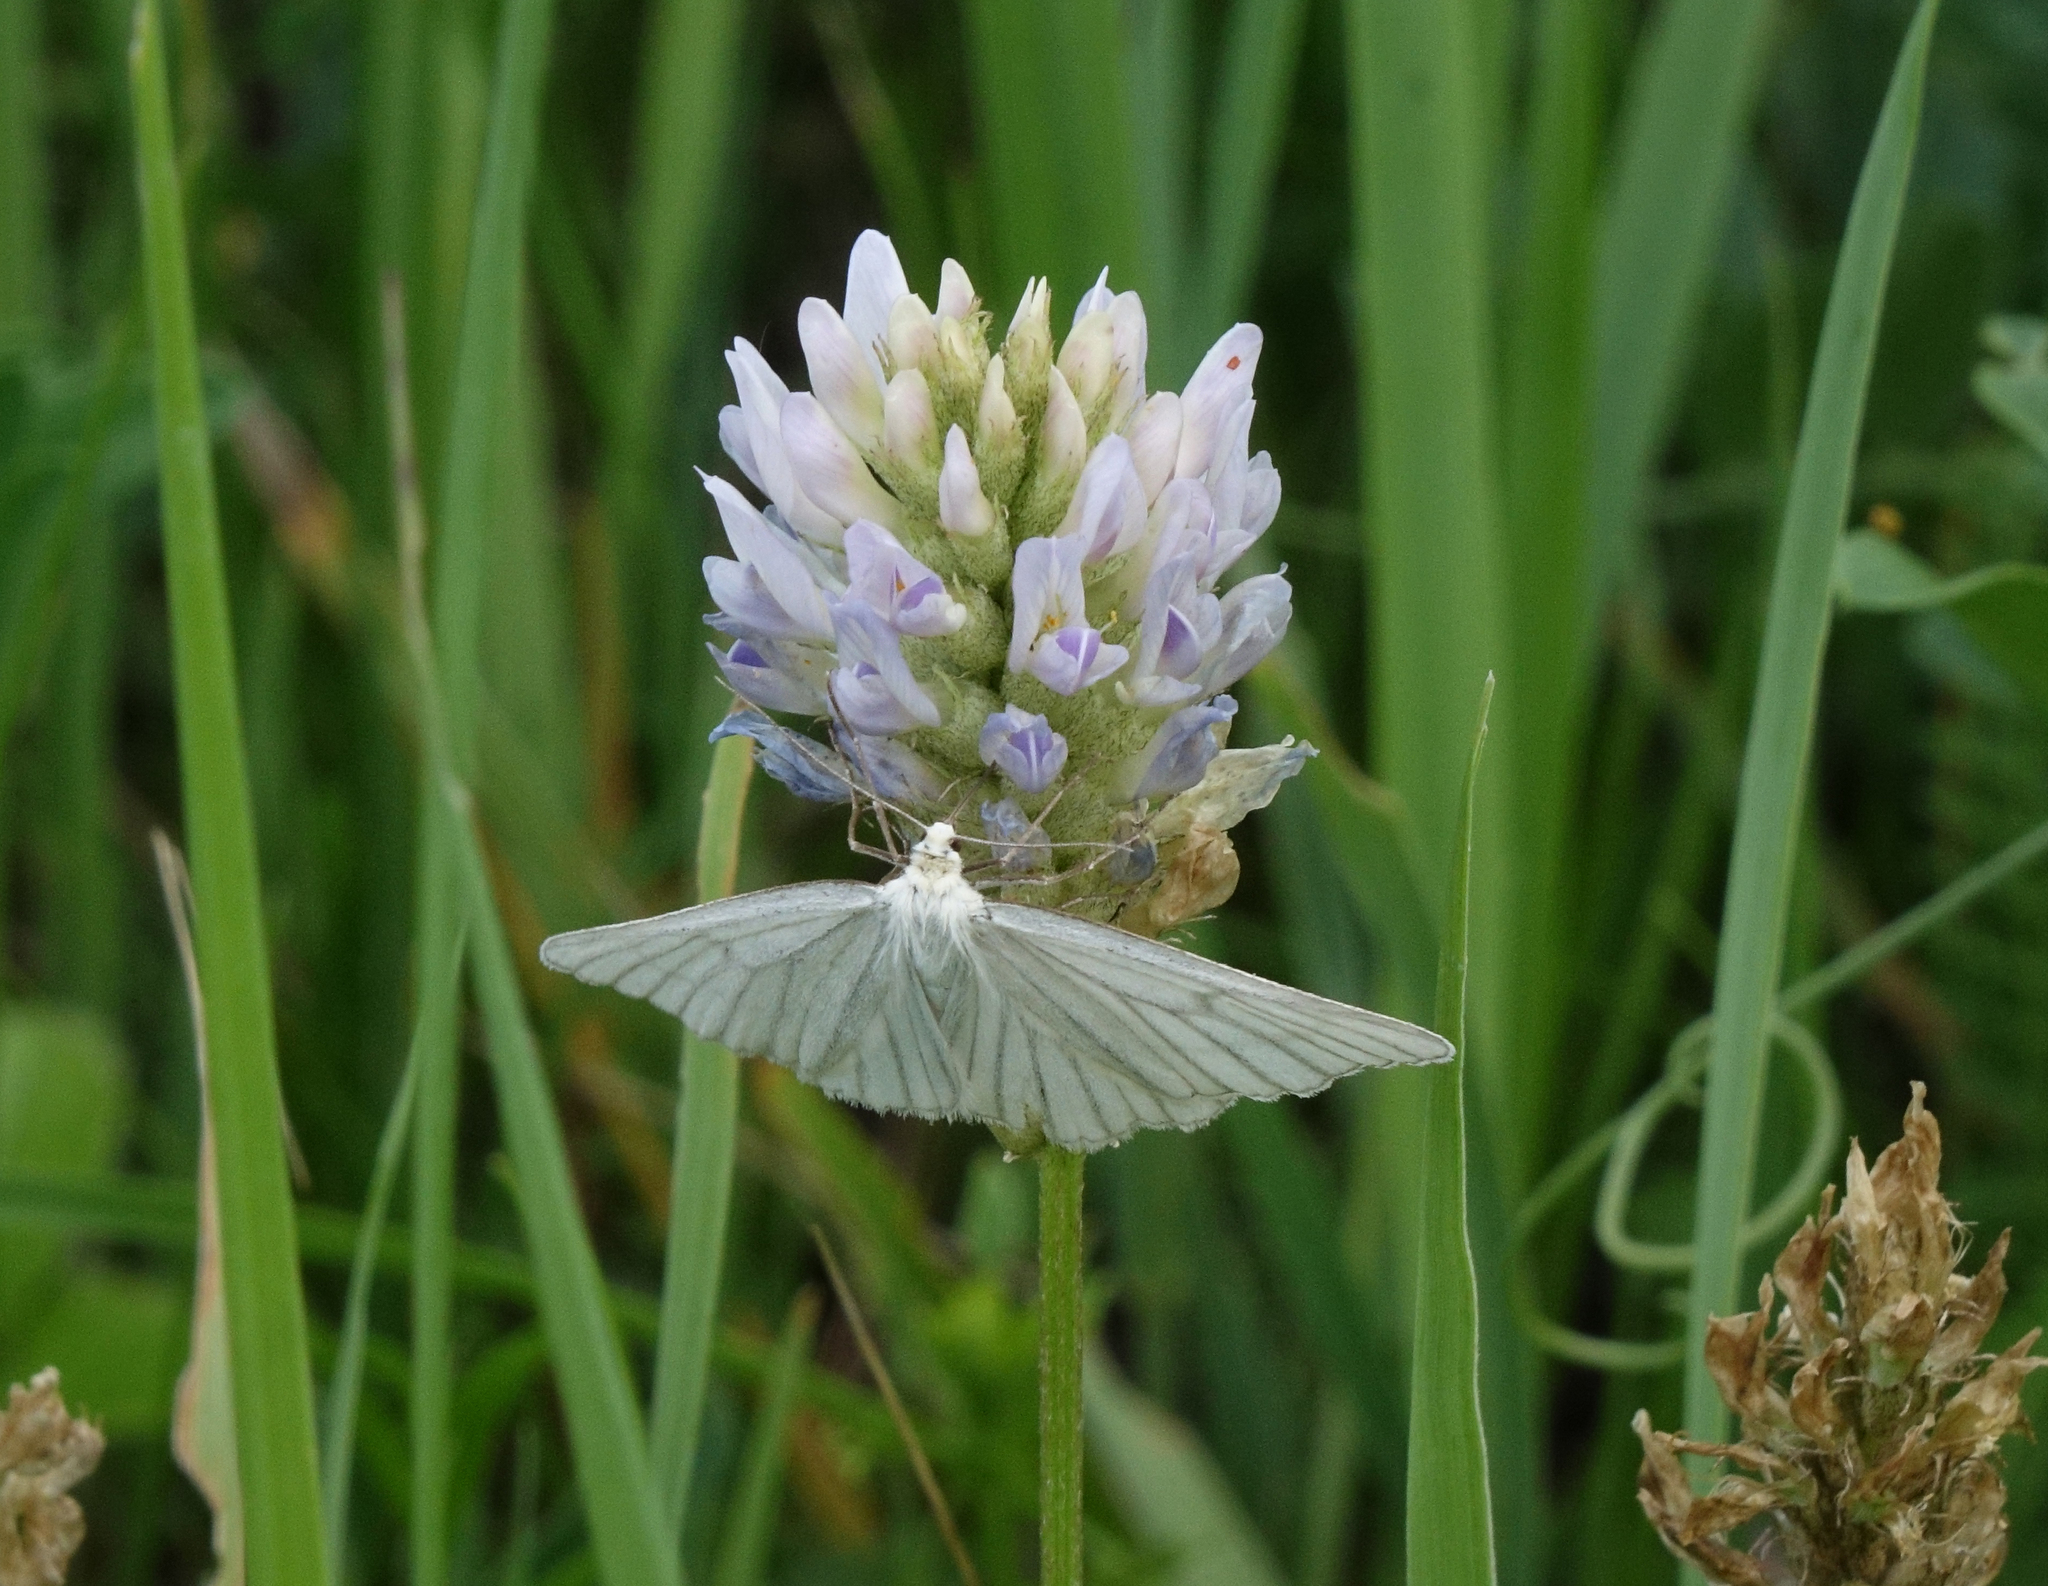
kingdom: Animalia
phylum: Arthropoda
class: Insecta
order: Lepidoptera
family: Geometridae
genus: Siona
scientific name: Siona lineata
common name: Black-veined moth
